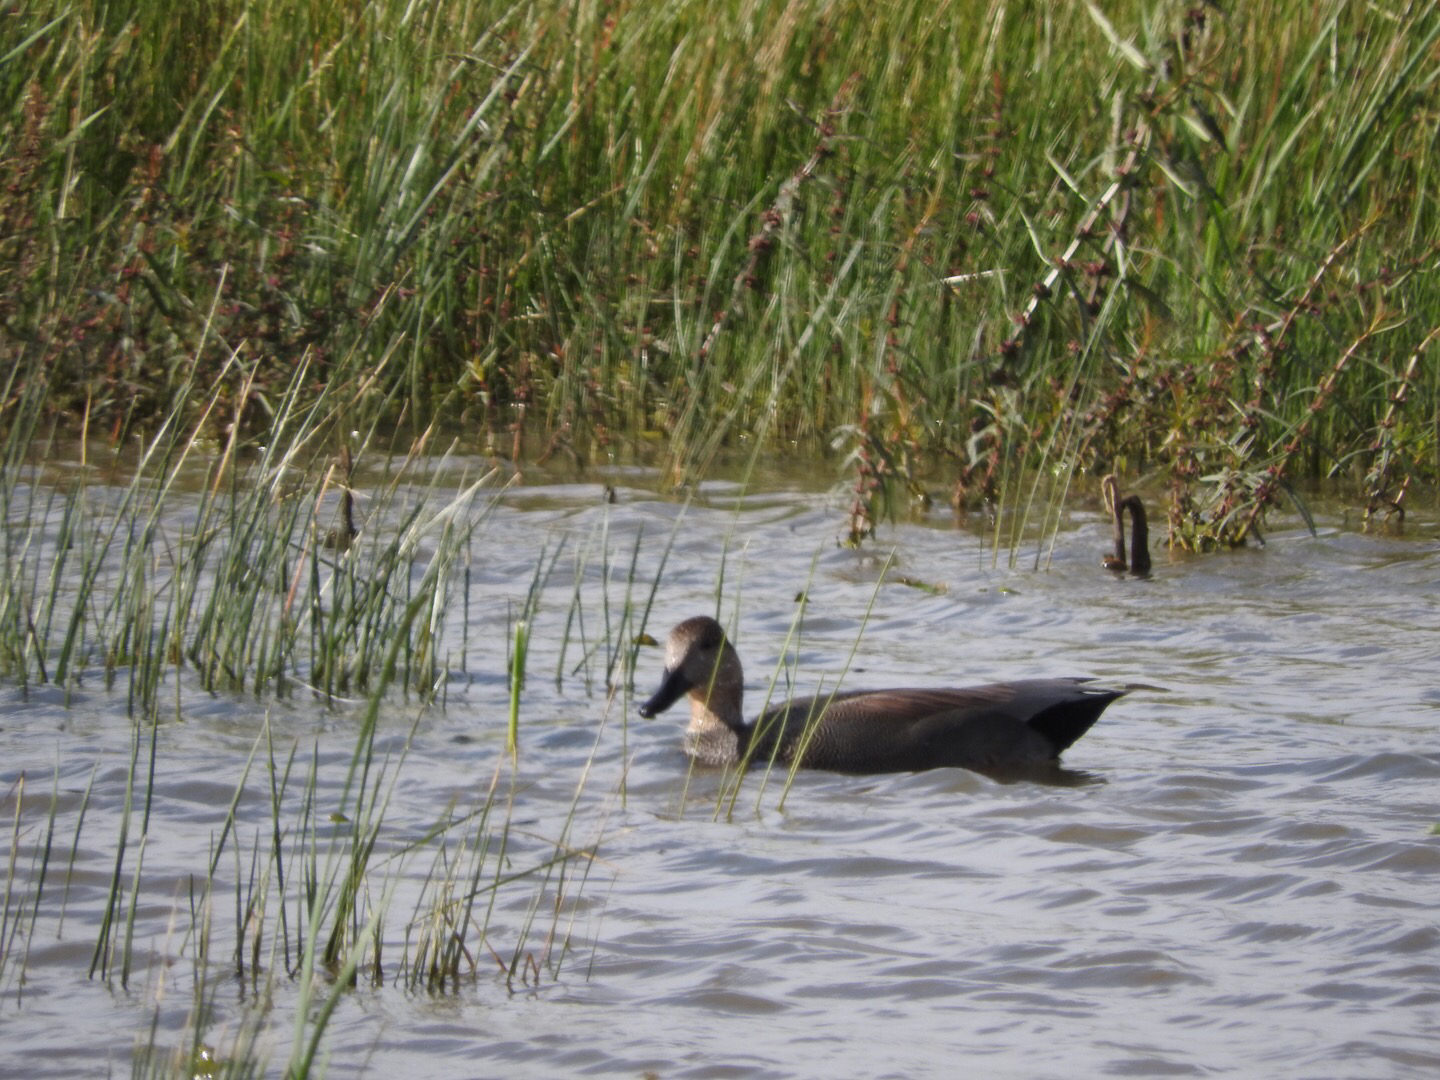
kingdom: Animalia
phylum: Chordata
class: Aves
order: Anseriformes
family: Anatidae
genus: Mareca
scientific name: Mareca strepera
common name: Gadwall
